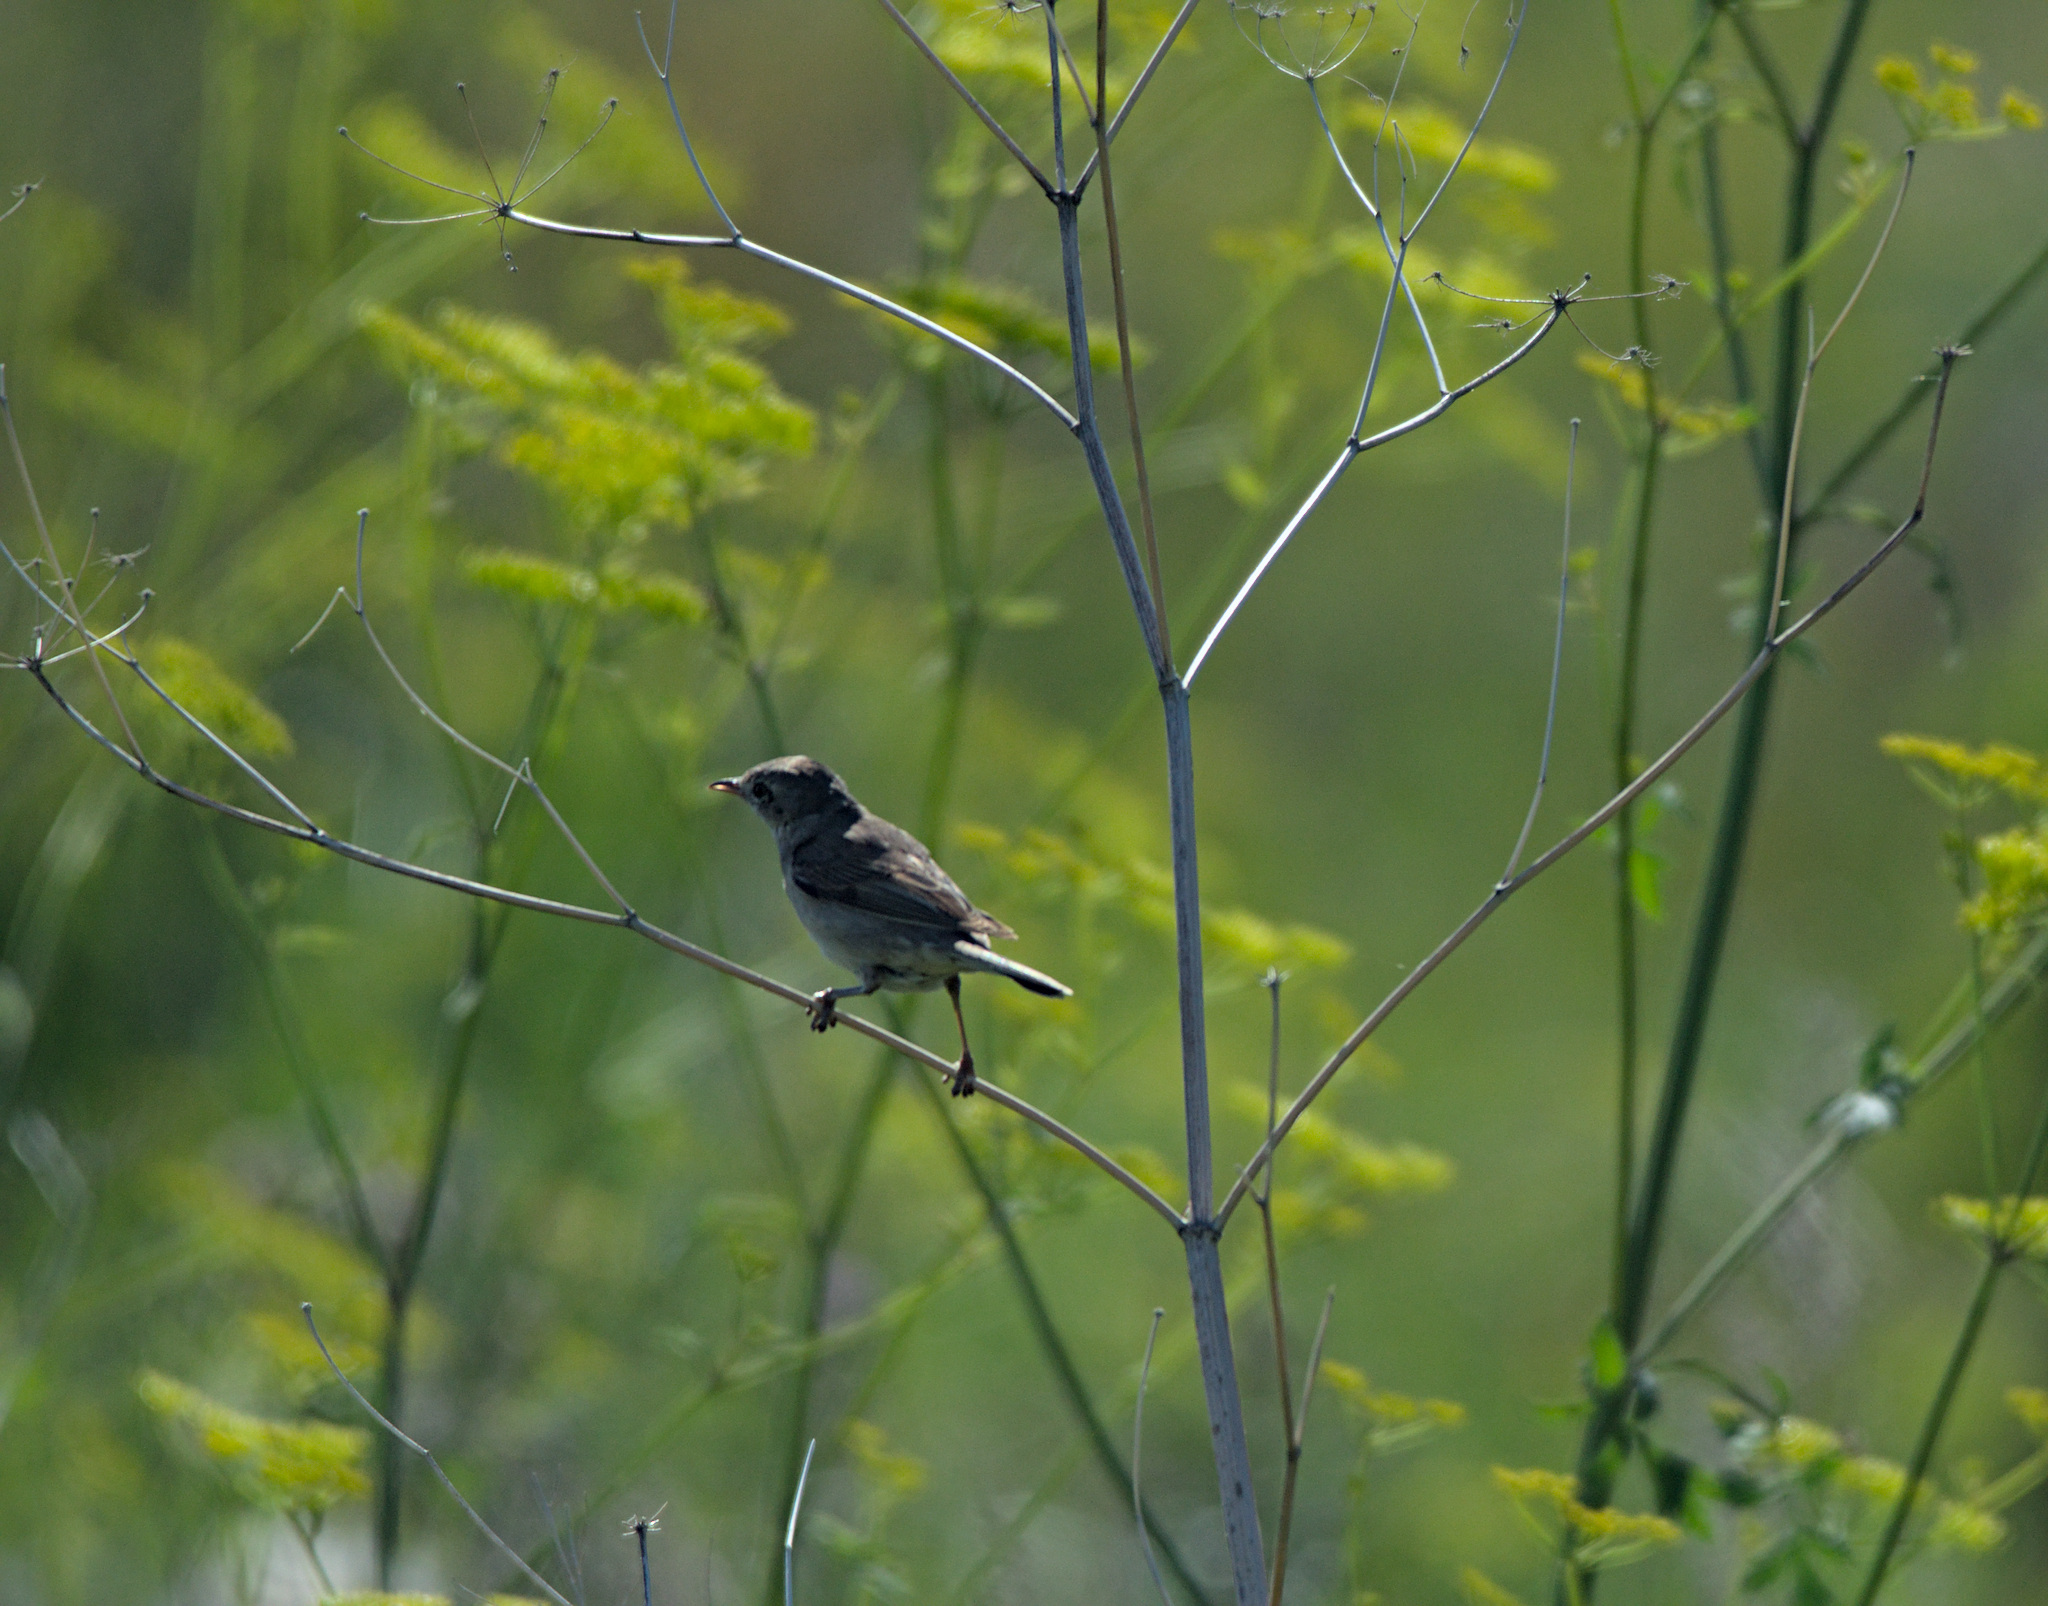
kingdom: Animalia
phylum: Chordata
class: Aves
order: Passeriformes
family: Sylviidae
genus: Sylvia
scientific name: Sylvia communis
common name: Common whitethroat
